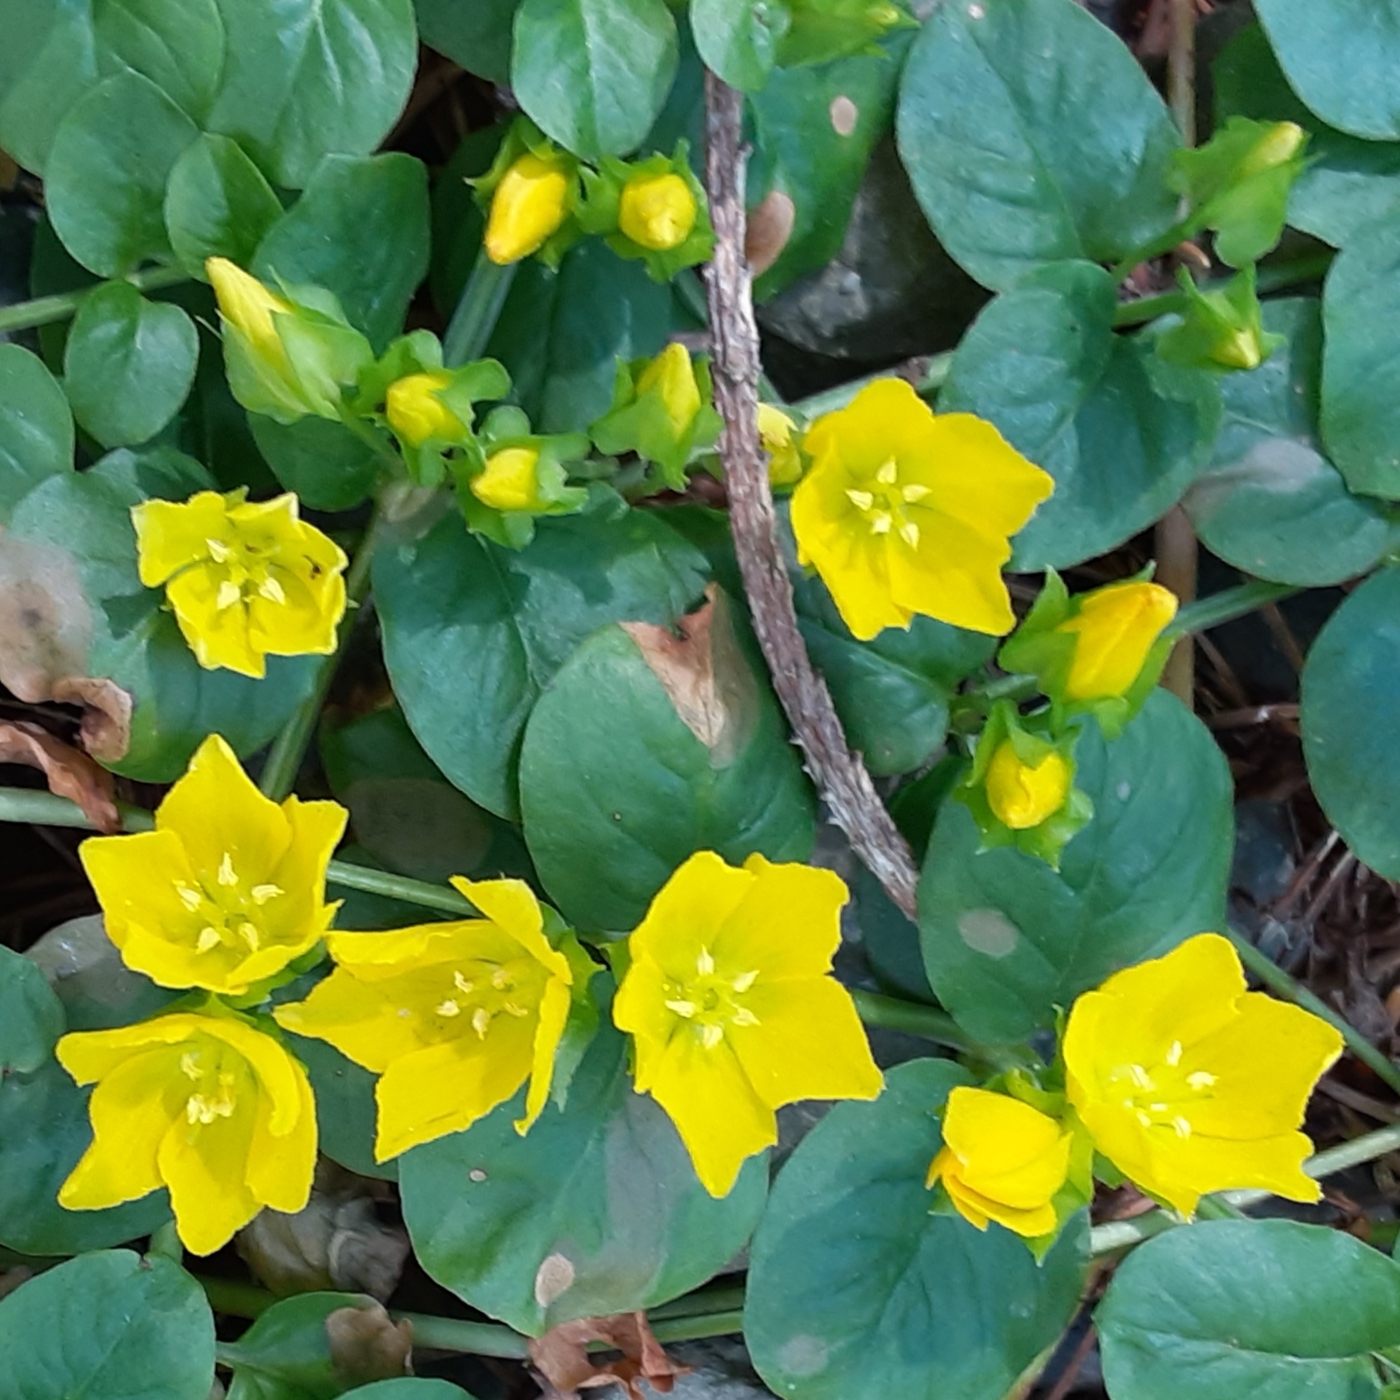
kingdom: Plantae
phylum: Tracheophyta
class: Magnoliopsida
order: Ericales
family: Primulaceae
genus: Lysimachia
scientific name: Lysimachia nummularia
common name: Moneywort
